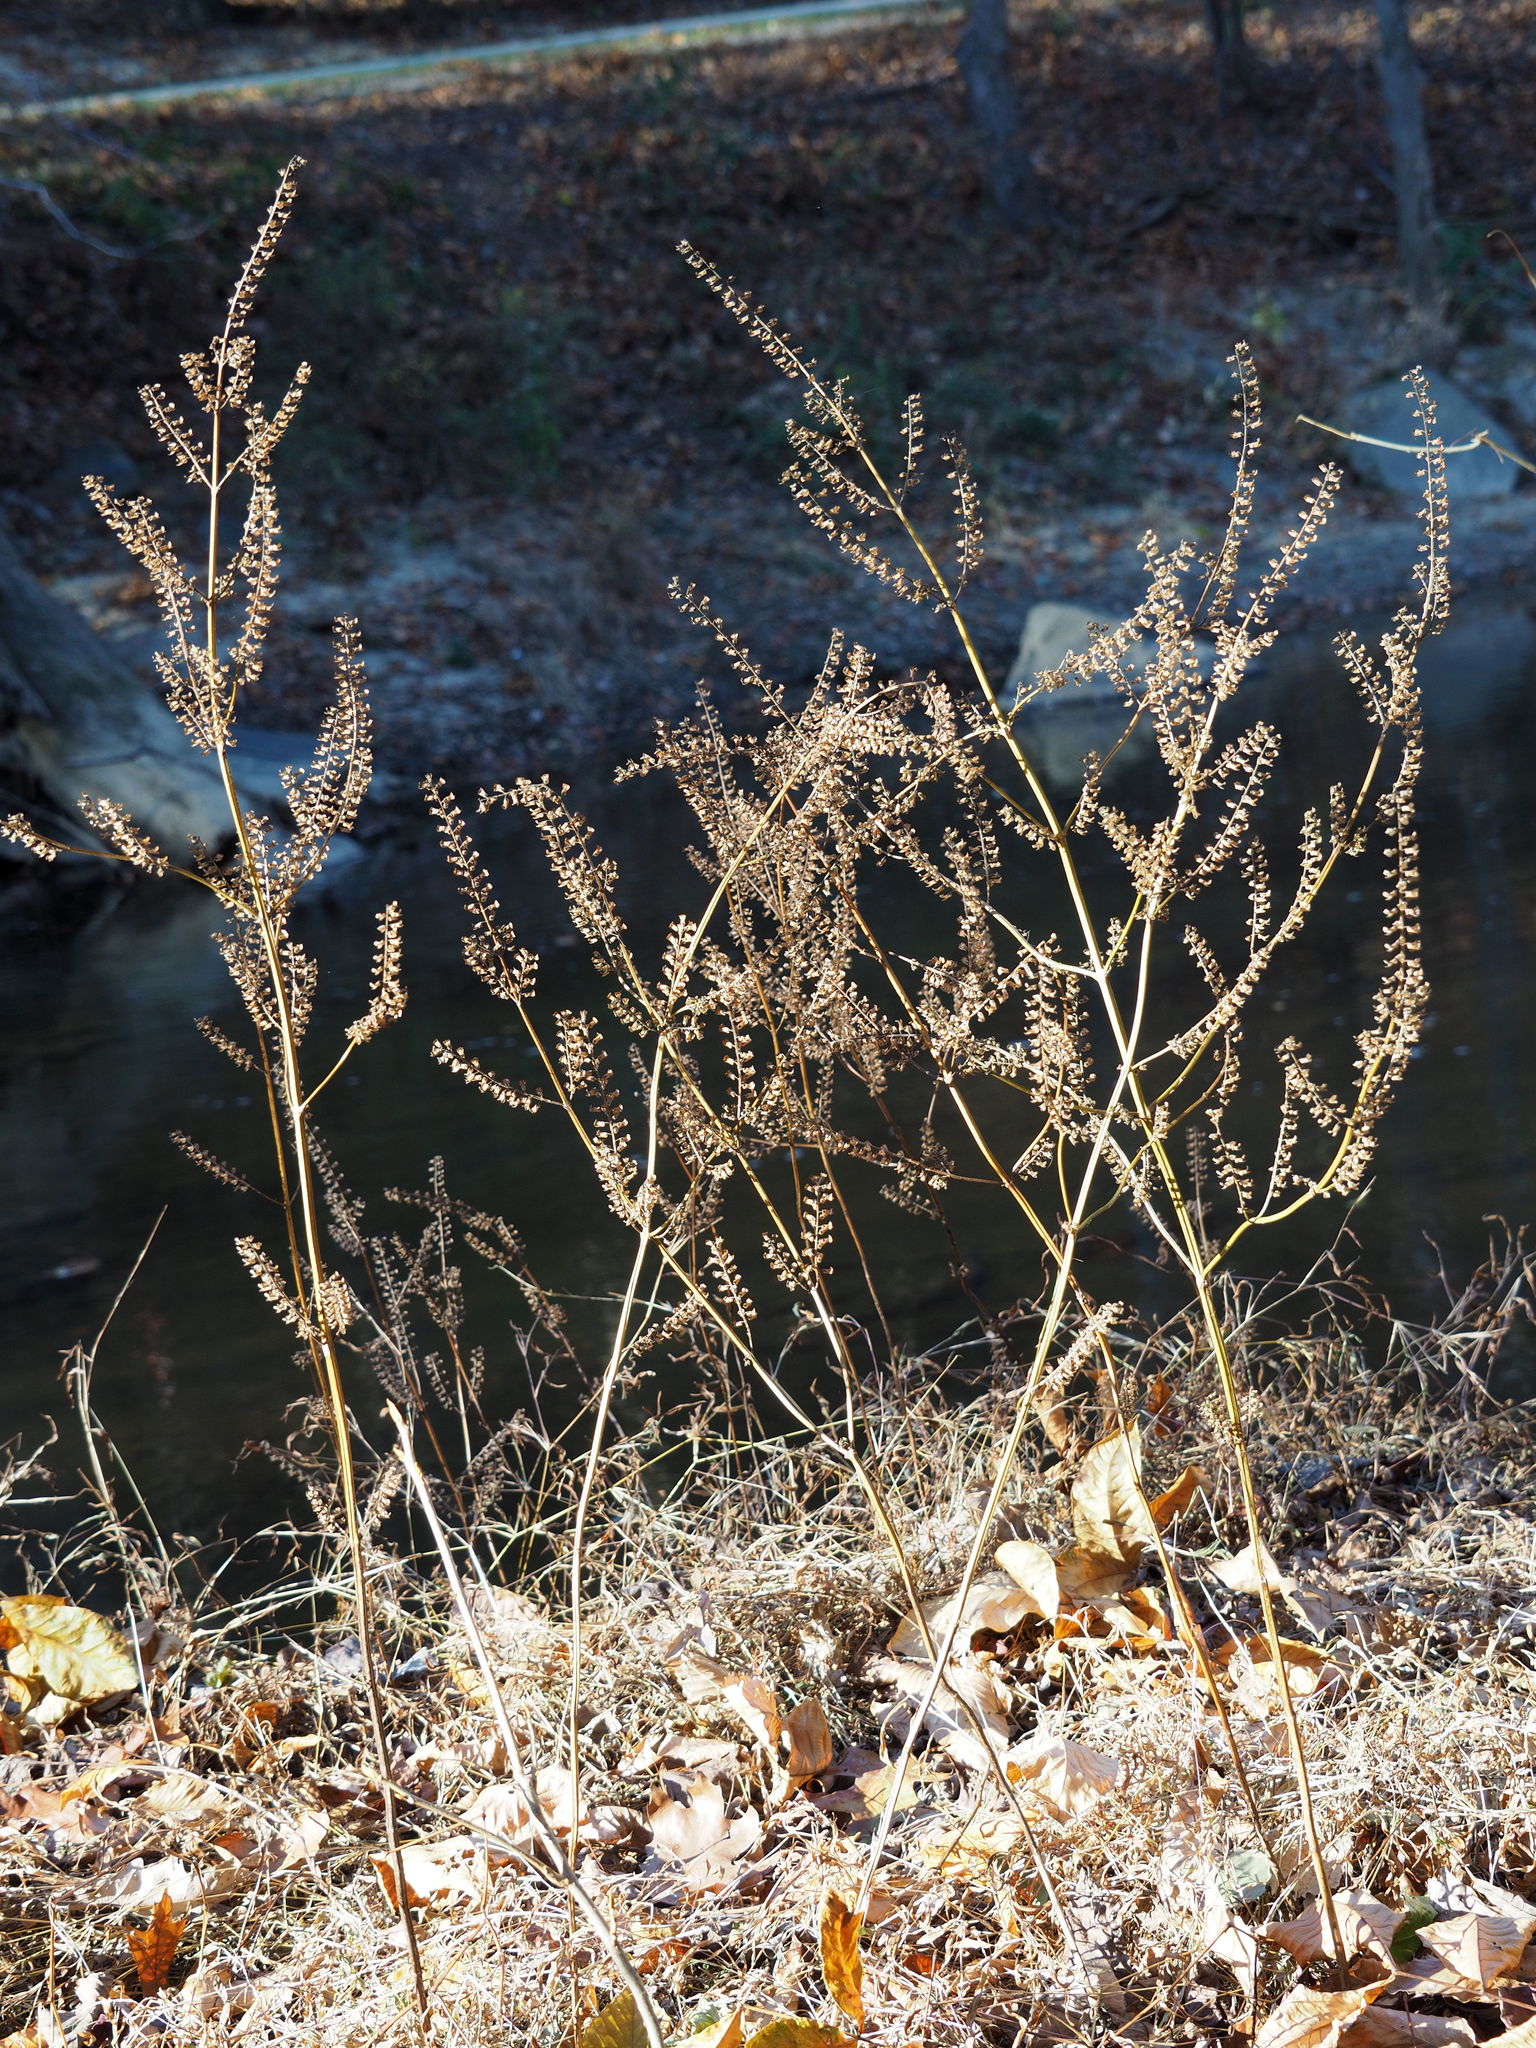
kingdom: Plantae
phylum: Tracheophyta
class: Magnoliopsida
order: Lamiales
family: Lamiaceae
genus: Perilla
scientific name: Perilla frutescens
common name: Perilla
